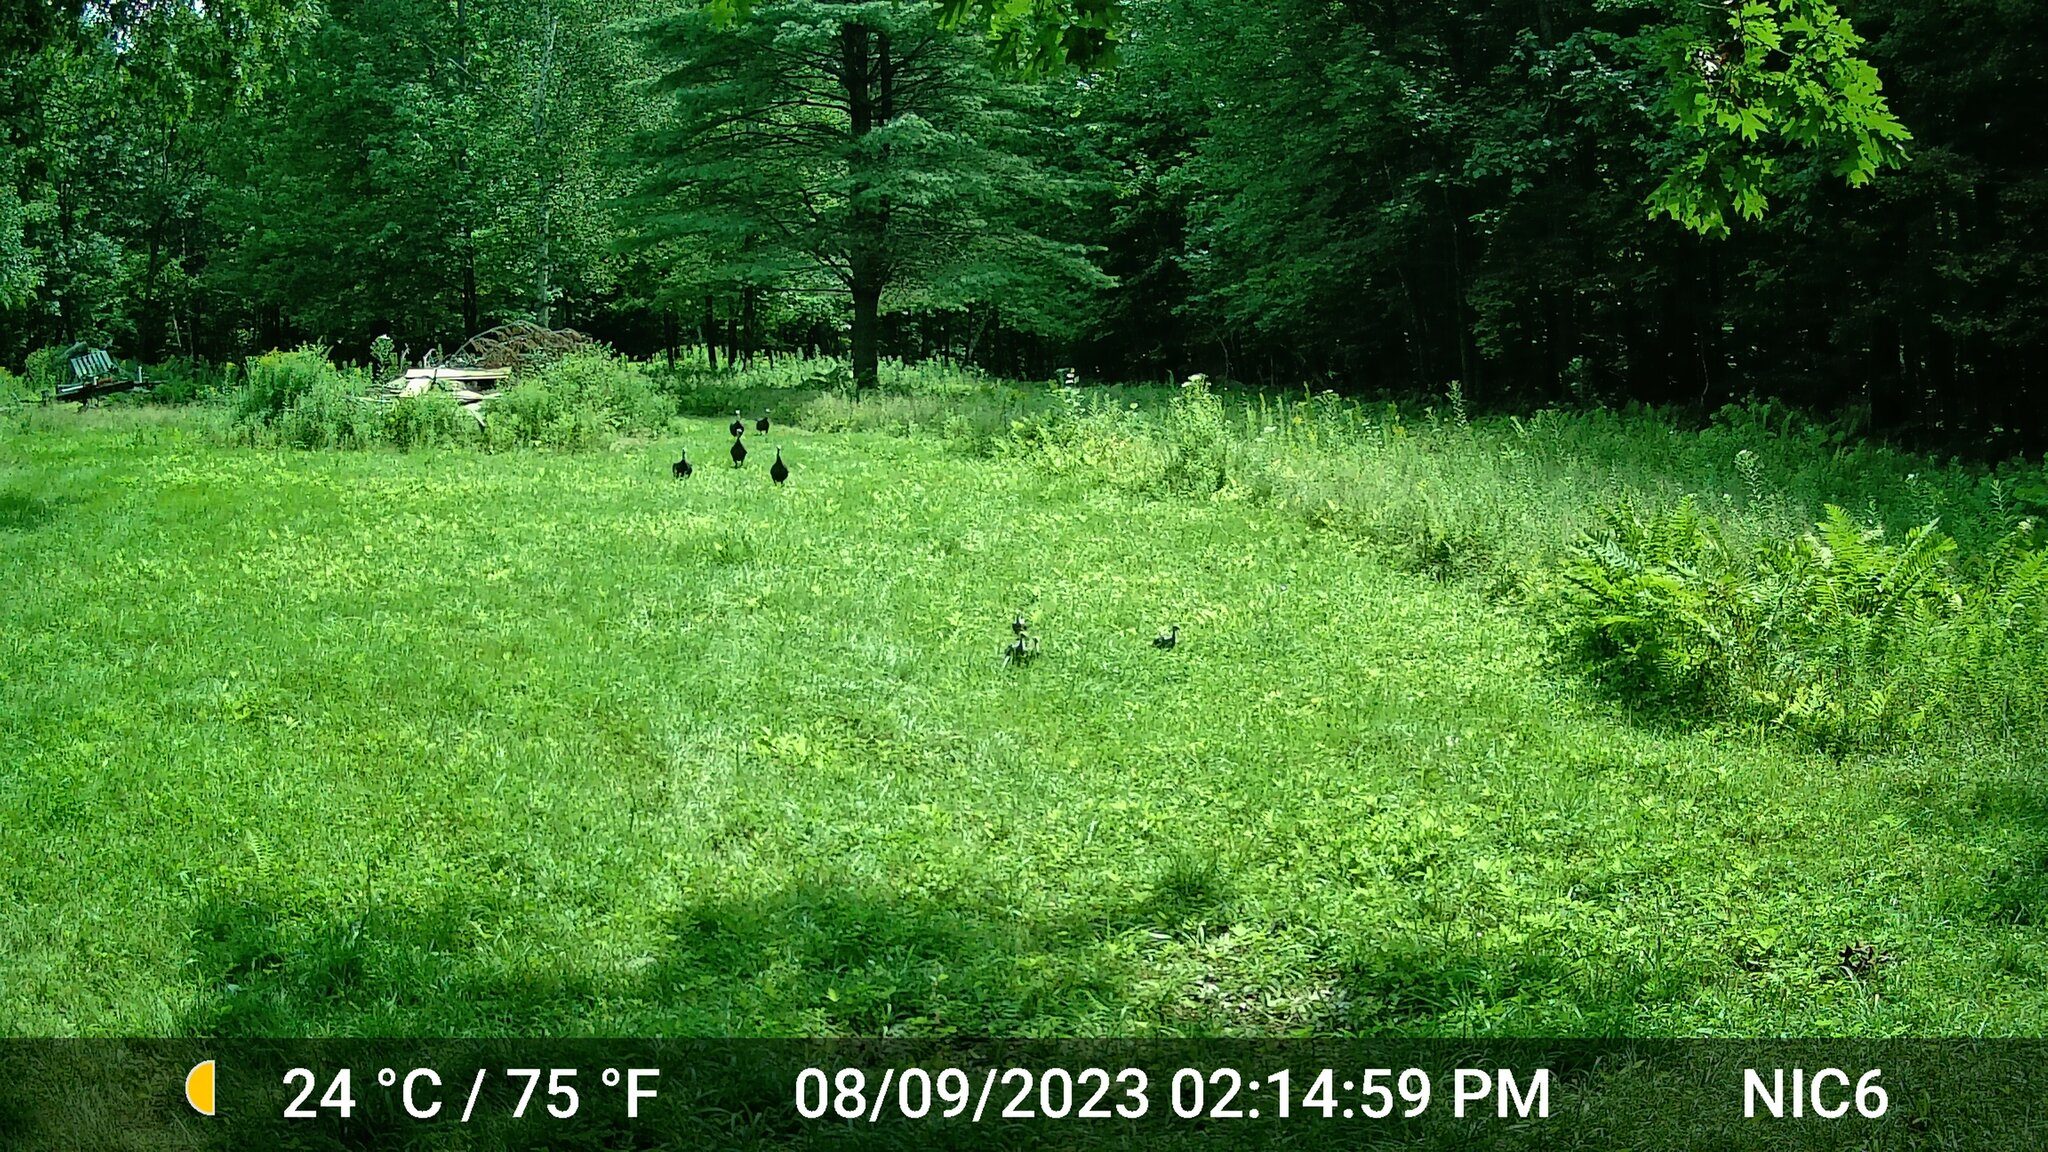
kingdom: Animalia
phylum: Chordata
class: Aves
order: Galliformes
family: Phasianidae
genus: Meleagris
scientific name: Meleagris gallopavo
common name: Wild turkey
